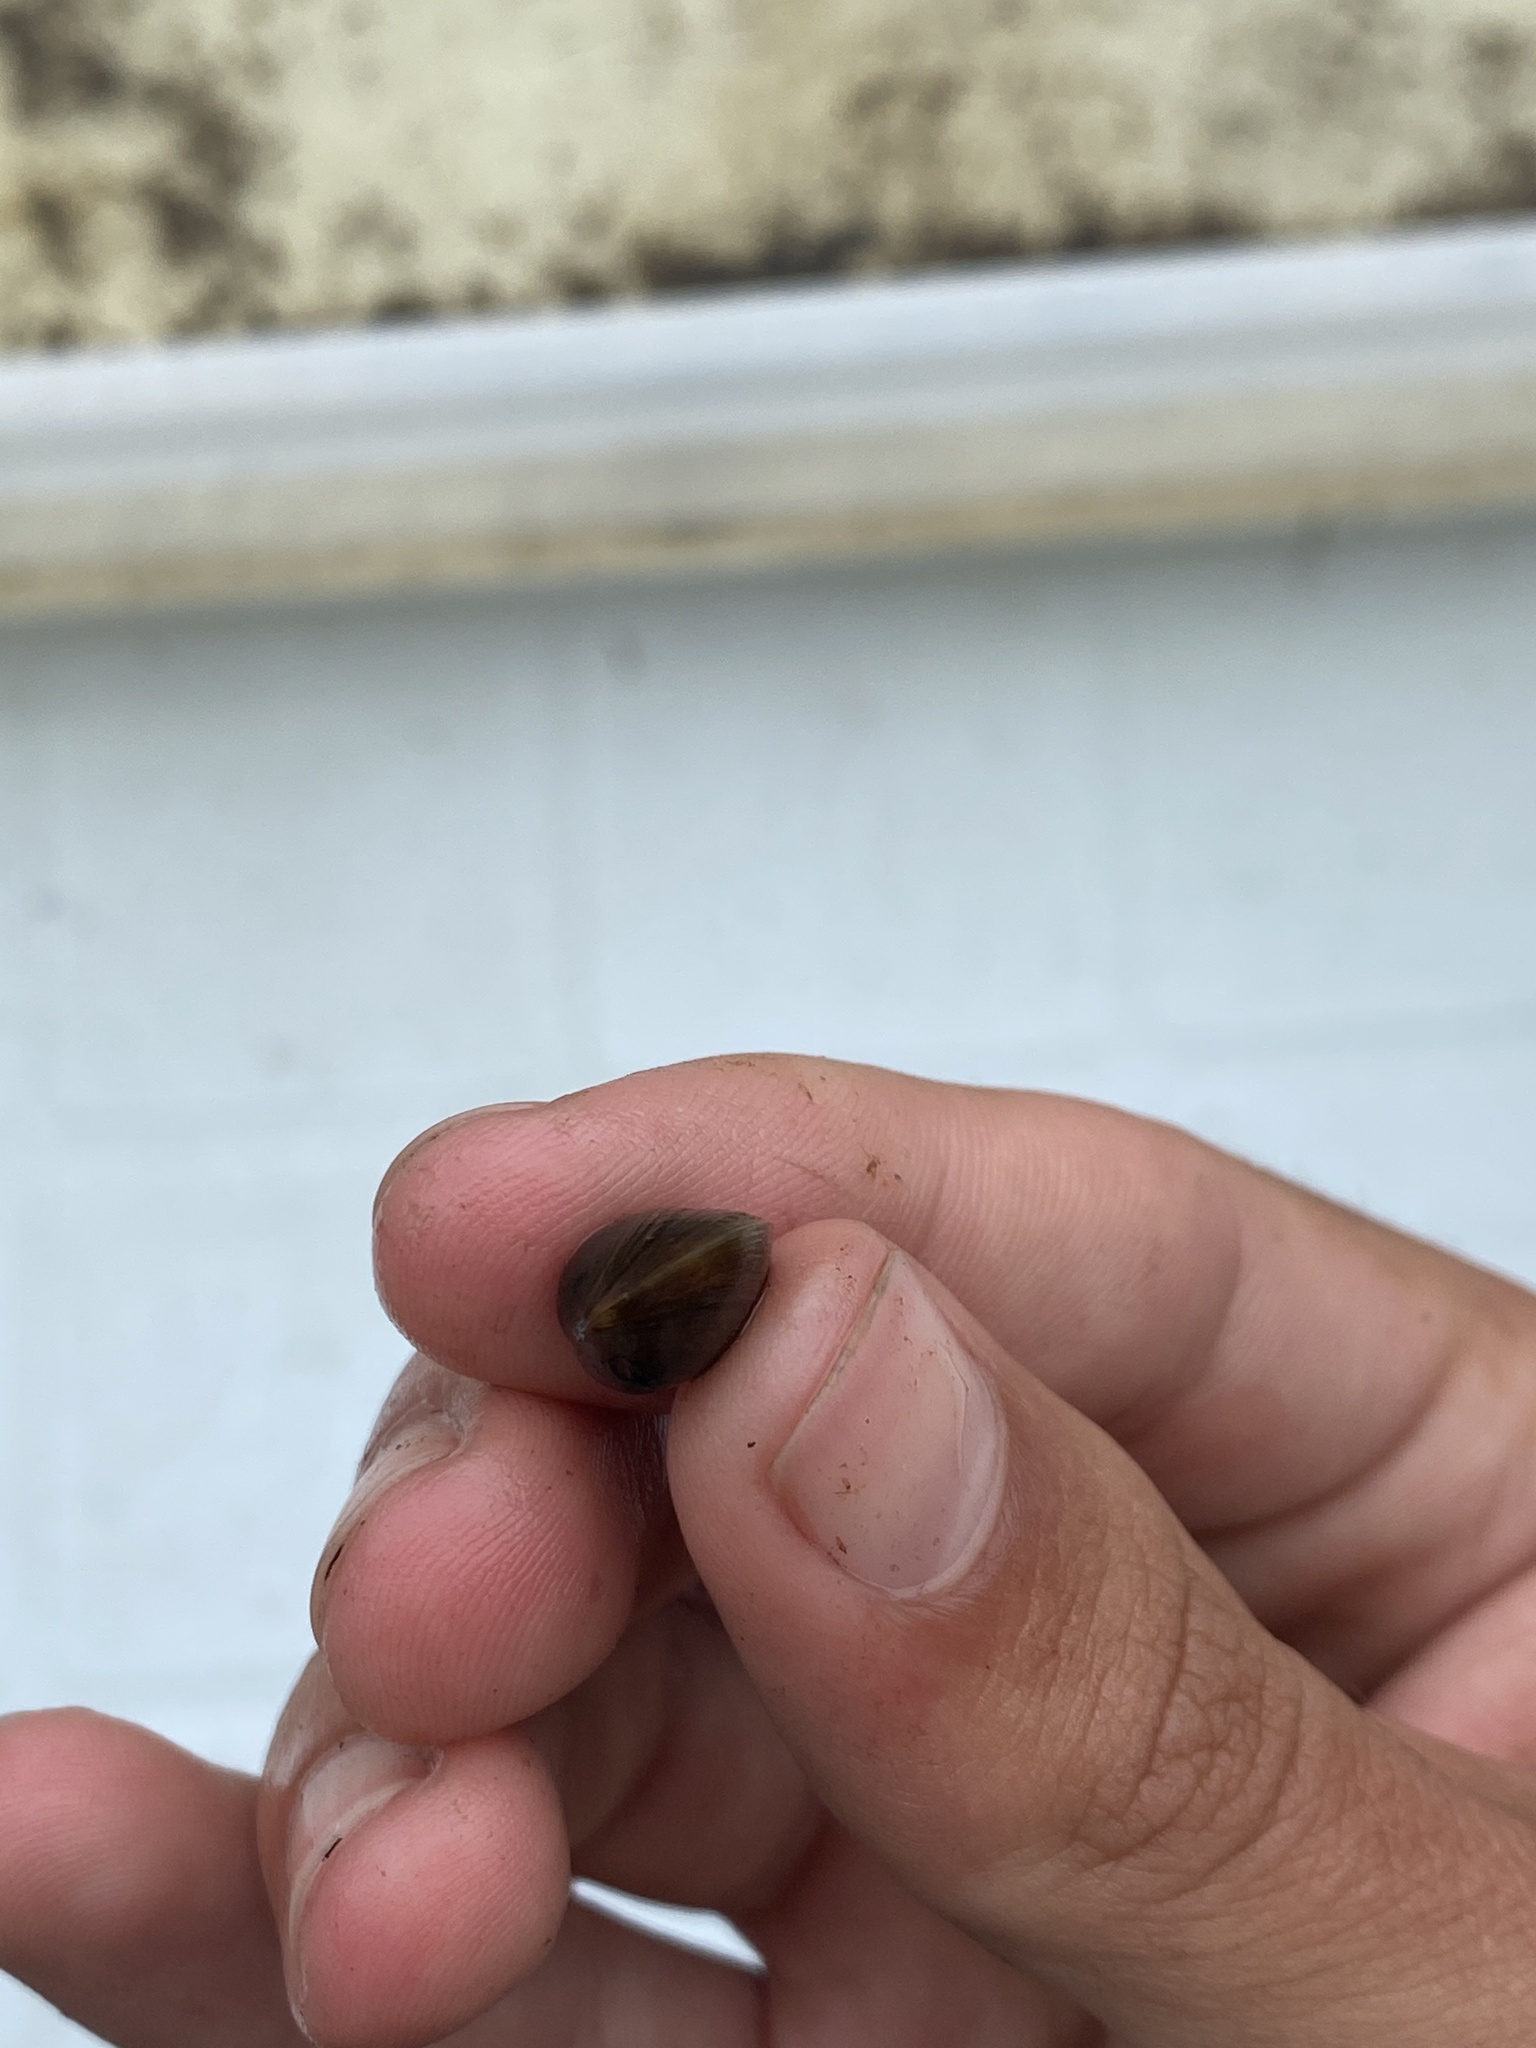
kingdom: Animalia
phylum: Mollusca
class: Bivalvia
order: Sphaeriida
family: Sphaeriidae
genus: Sphaerium
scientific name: Sphaerium simile
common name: Grooved fingernailclam
